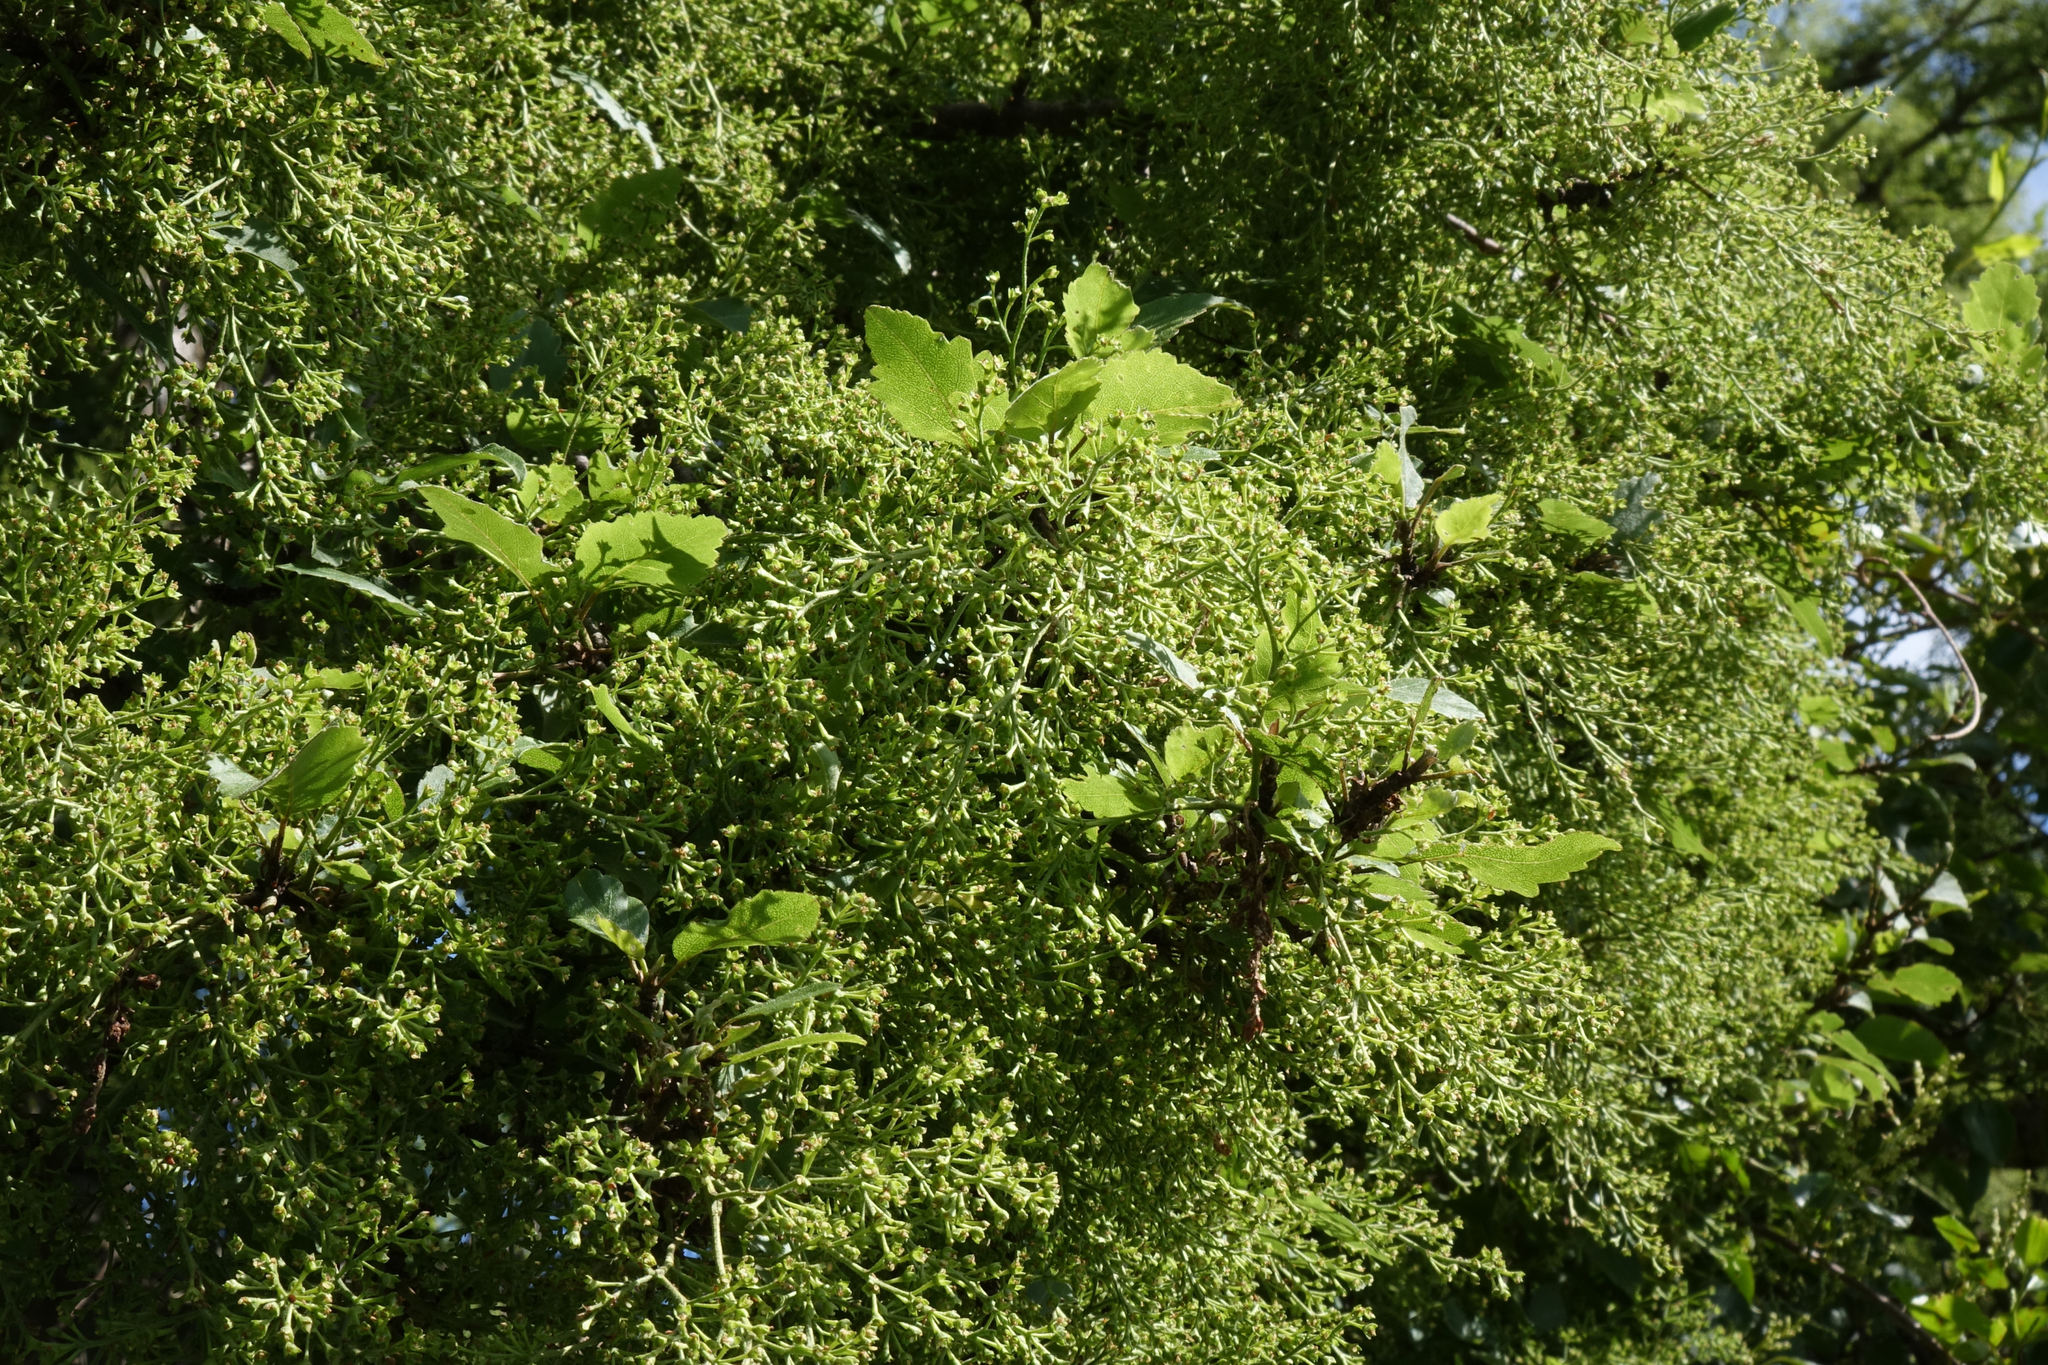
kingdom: Plantae
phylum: Tracheophyta
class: Magnoliopsida
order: Malvales
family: Malvaceae
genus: Plagianthus
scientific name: Plagianthus regius
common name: Manatu
